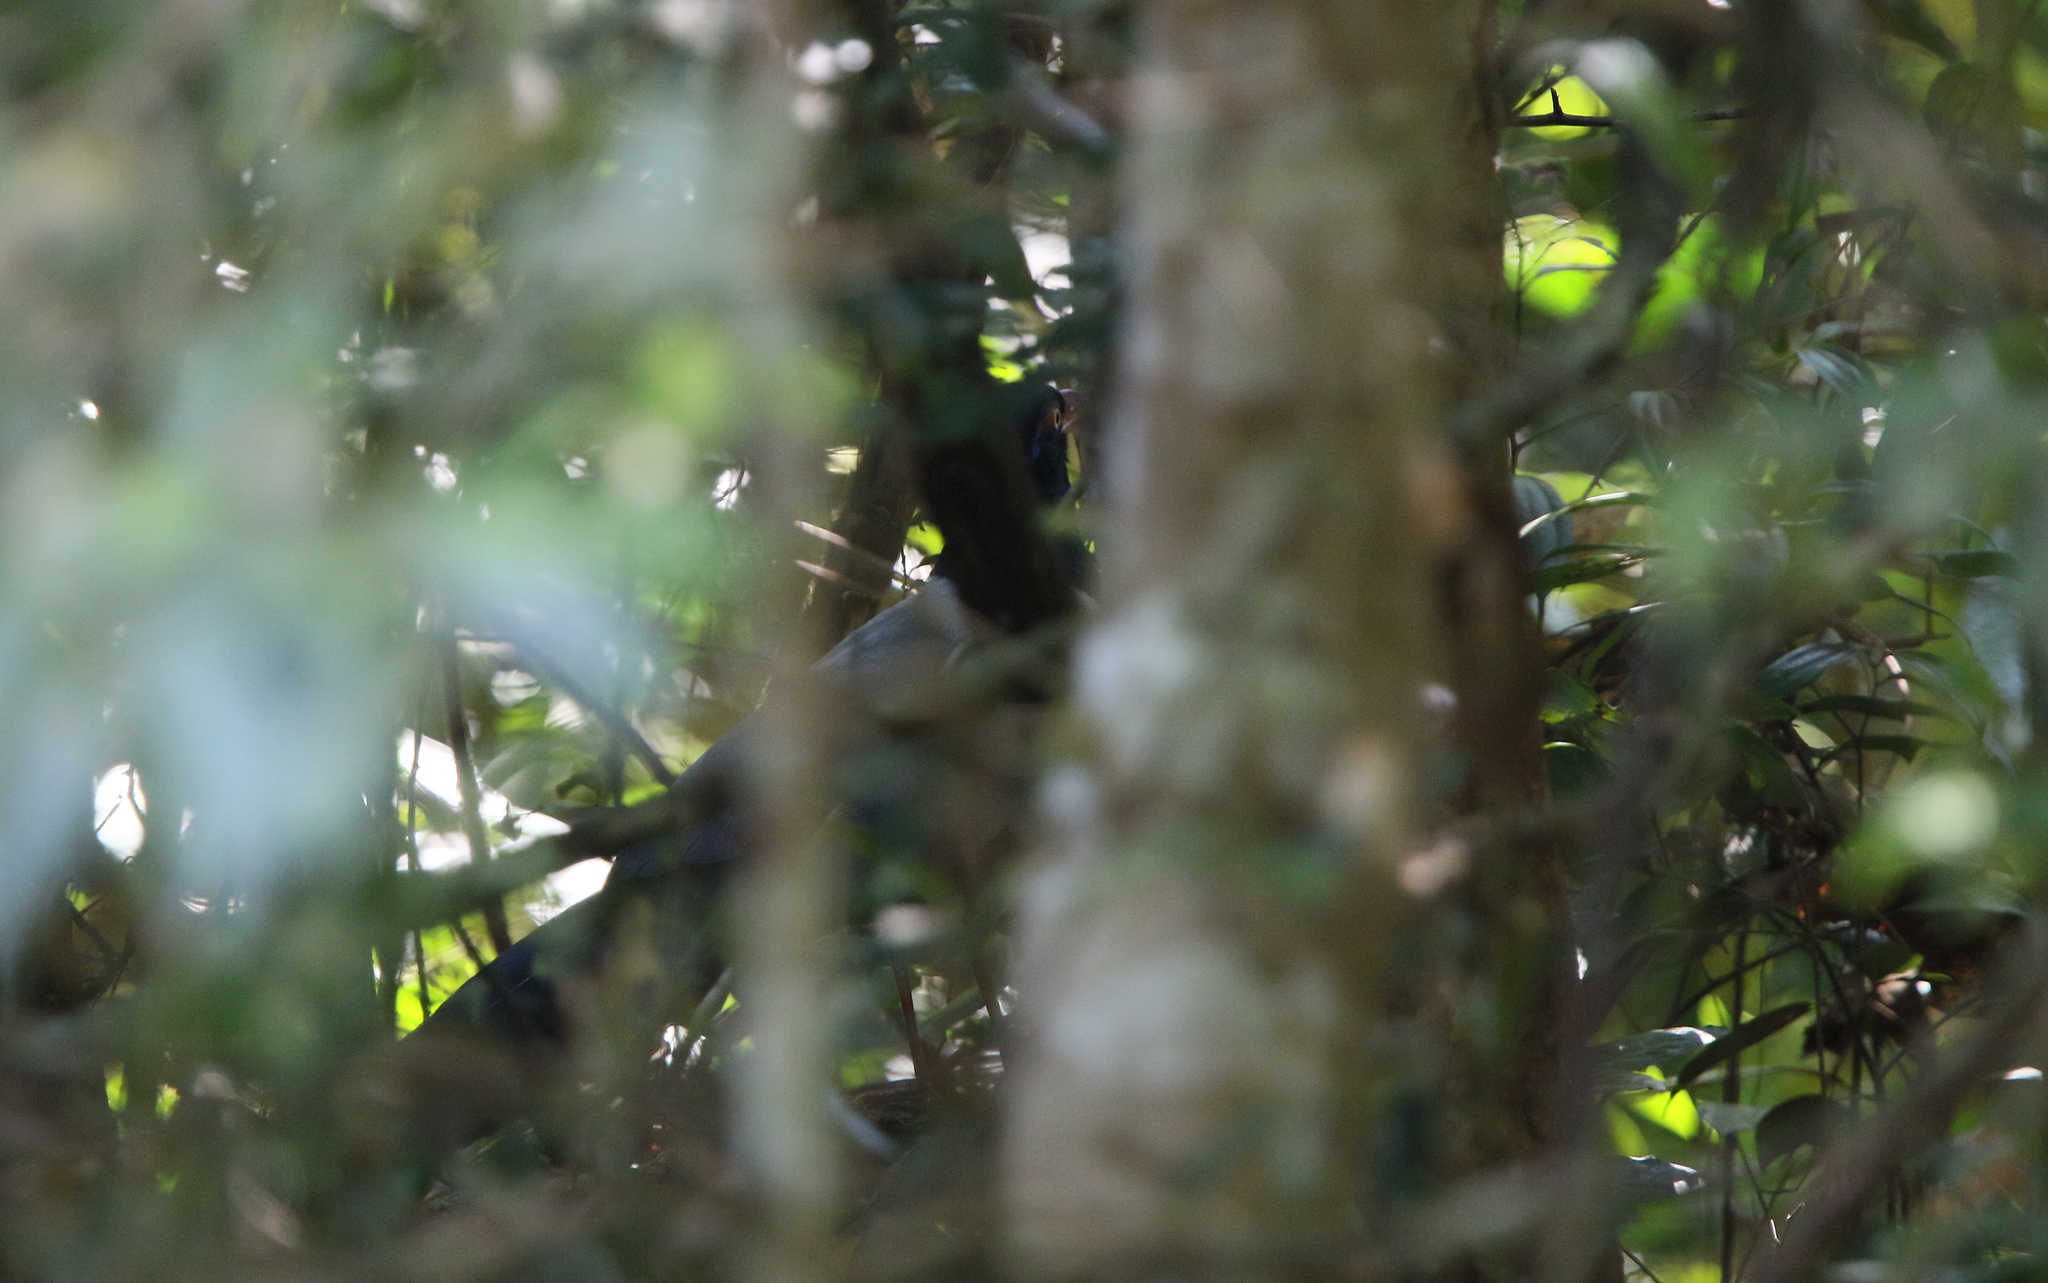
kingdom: Animalia
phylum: Chordata
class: Aves
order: Cuculiformes
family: Cuculidae
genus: Carpococcyx
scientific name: Carpococcyx renauldi
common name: Coral-billed ground cuckoo
